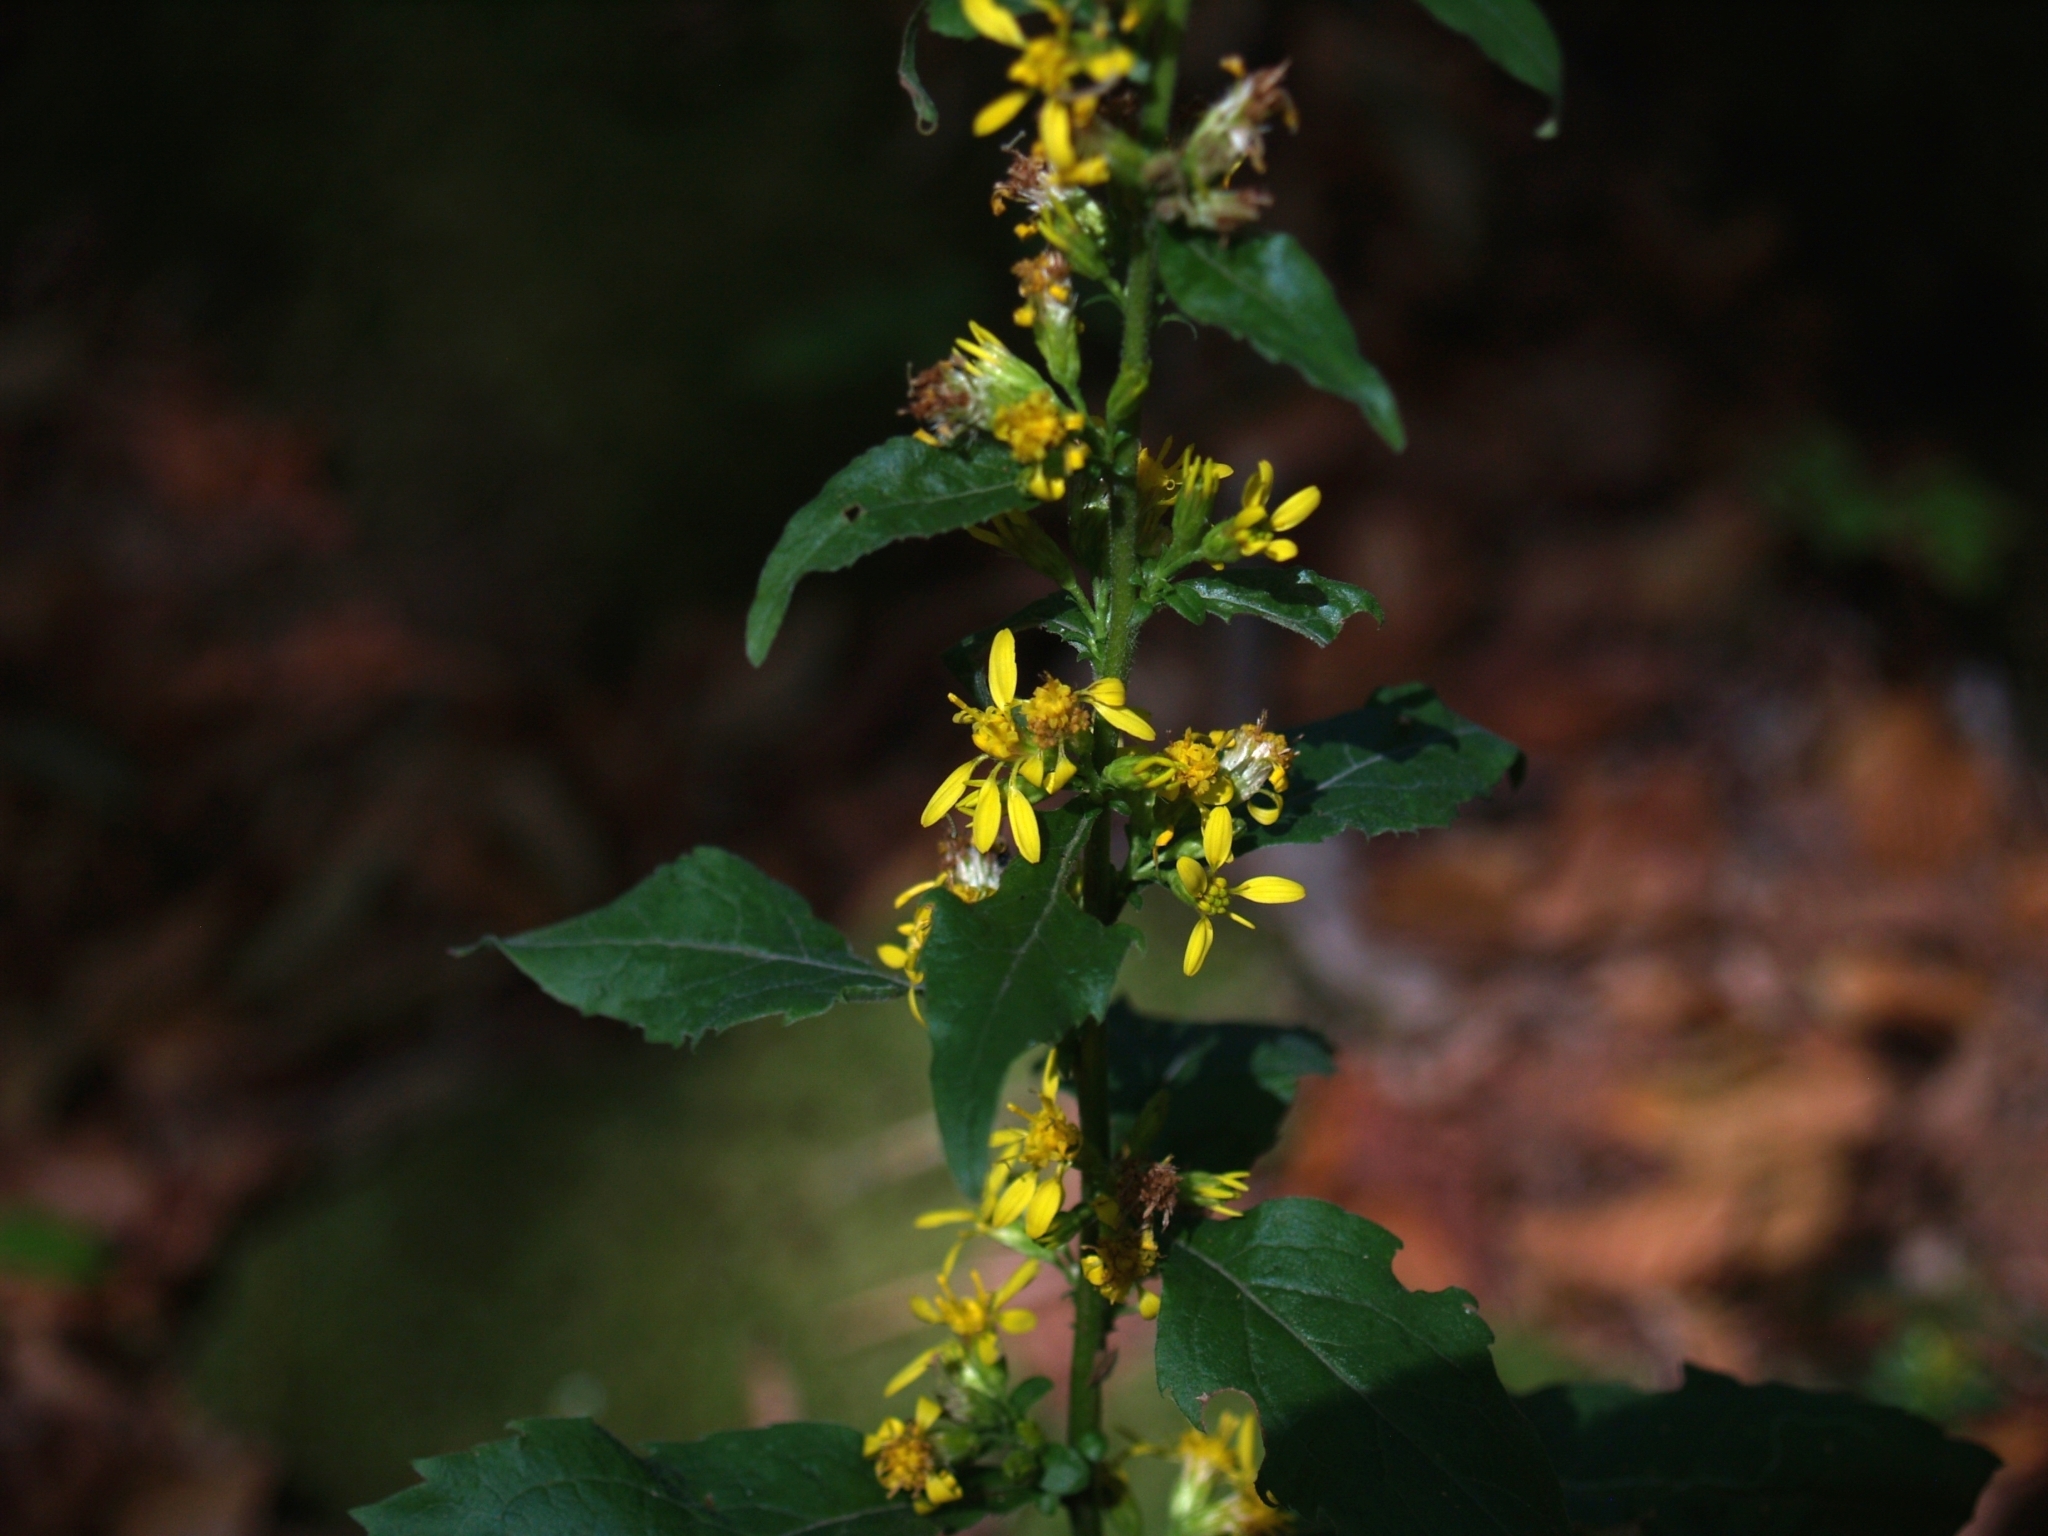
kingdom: Plantae
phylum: Tracheophyta
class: Magnoliopsida
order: Asterales
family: Asteraceae
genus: Solidago
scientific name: Solidago virgaurea
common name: Goldenrod
